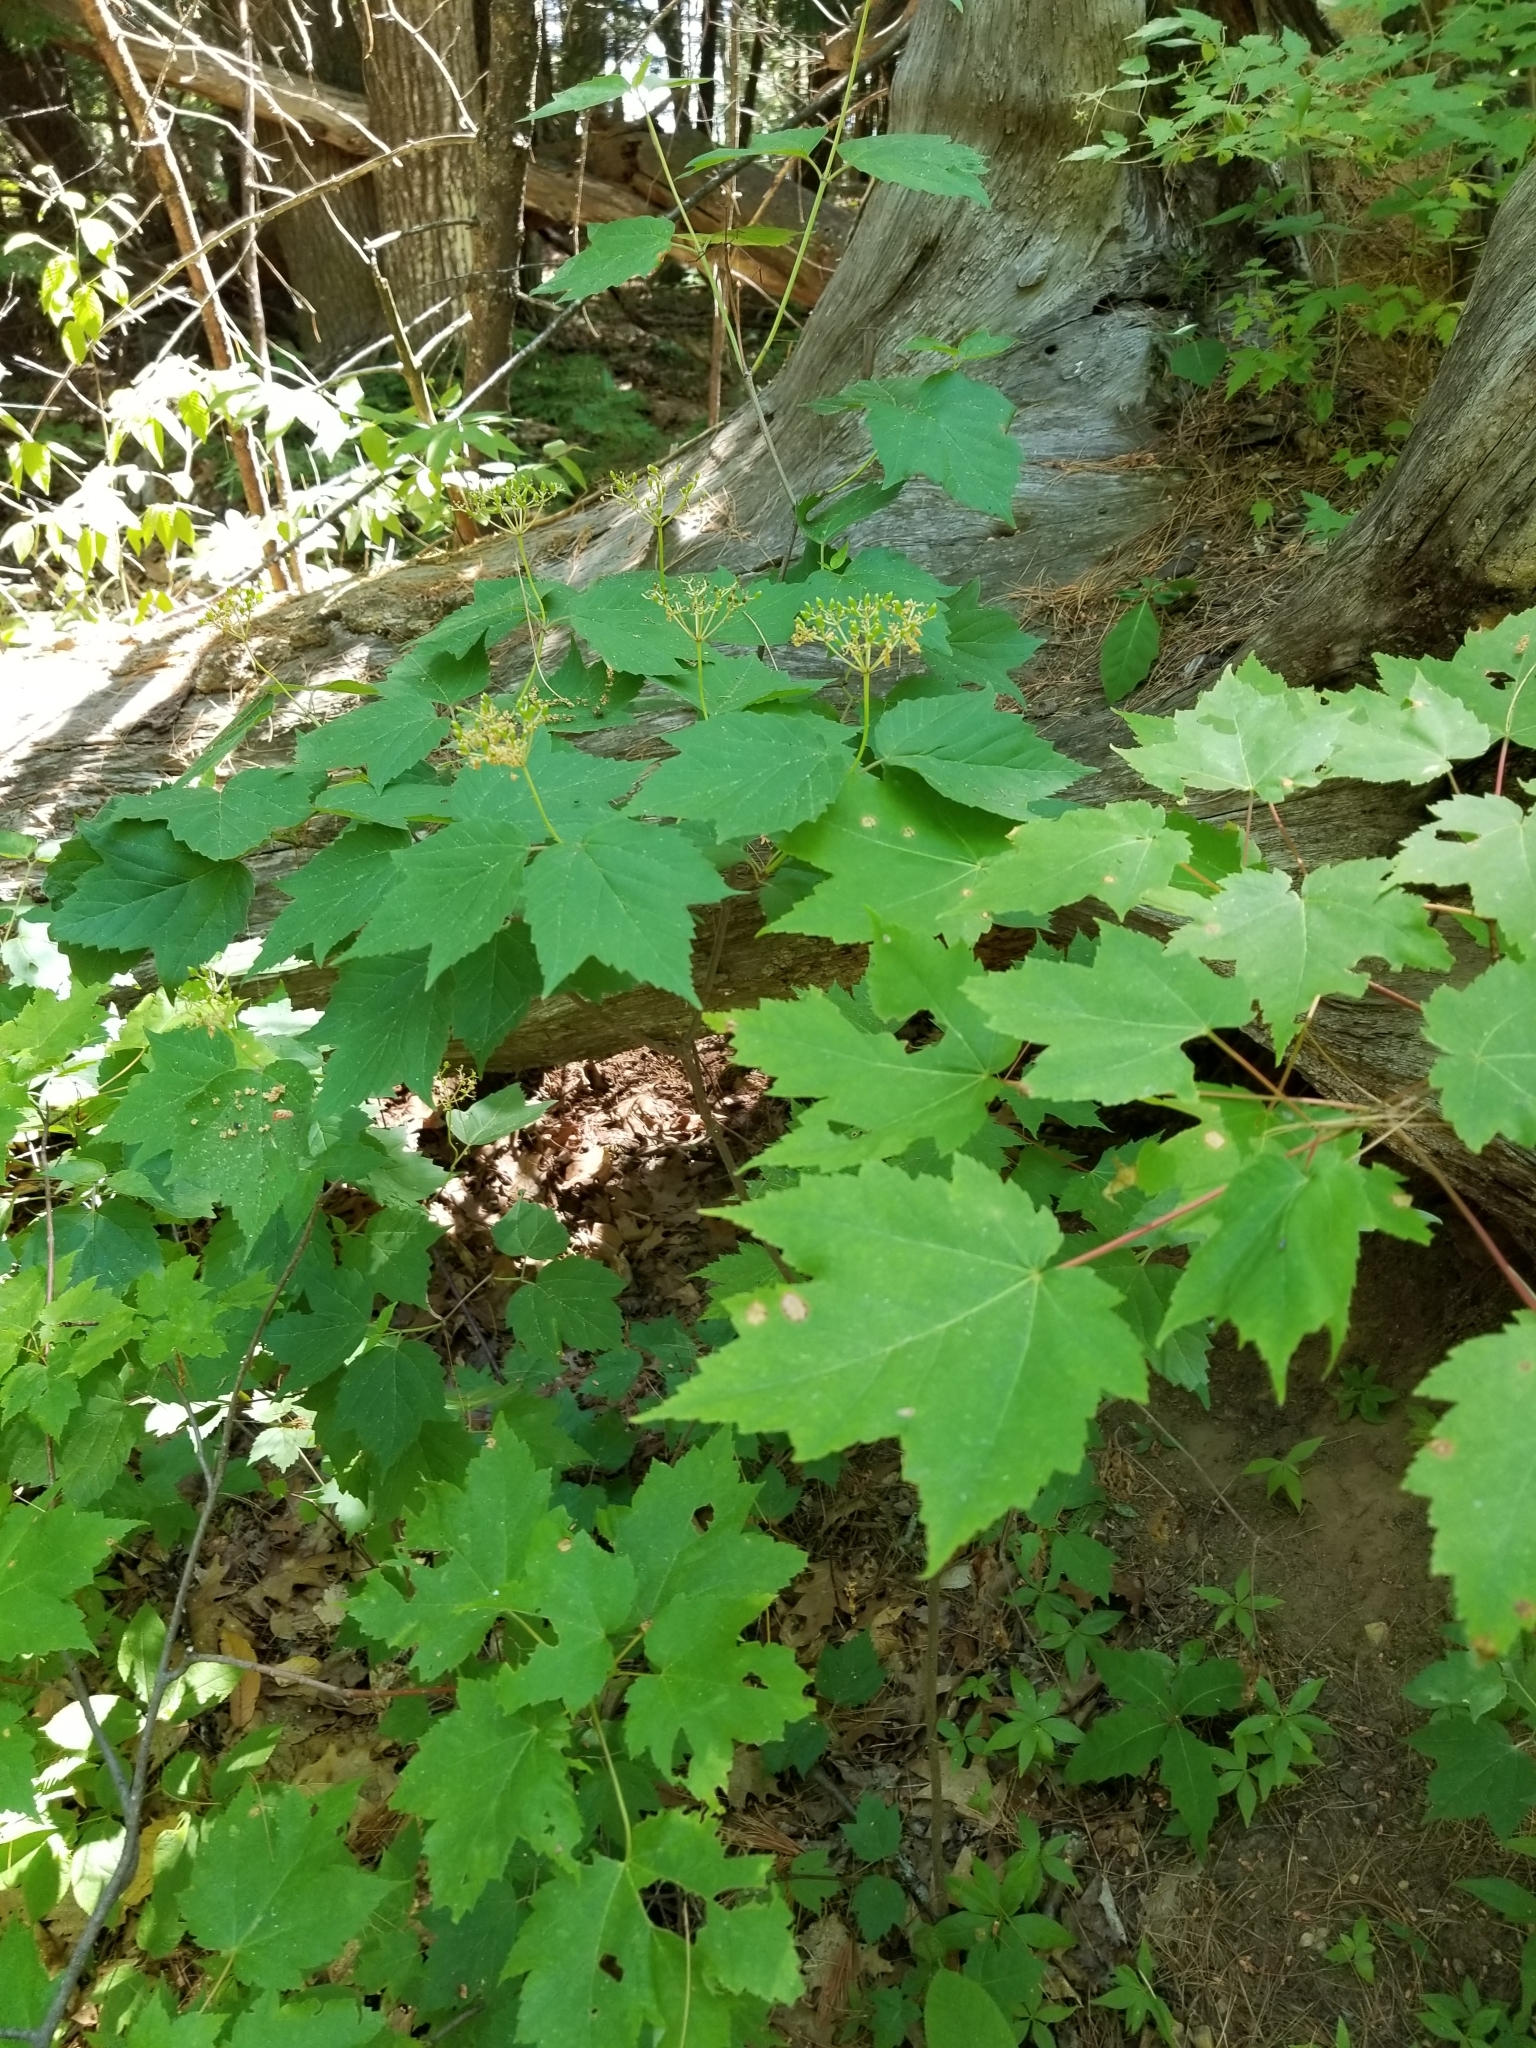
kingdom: Plantae
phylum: Tracheophyta
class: Magnoliopsida
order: Dipsacales
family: Viburnaceae
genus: Viburnum
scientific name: Viburnum acerifolium
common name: Dockmackie
